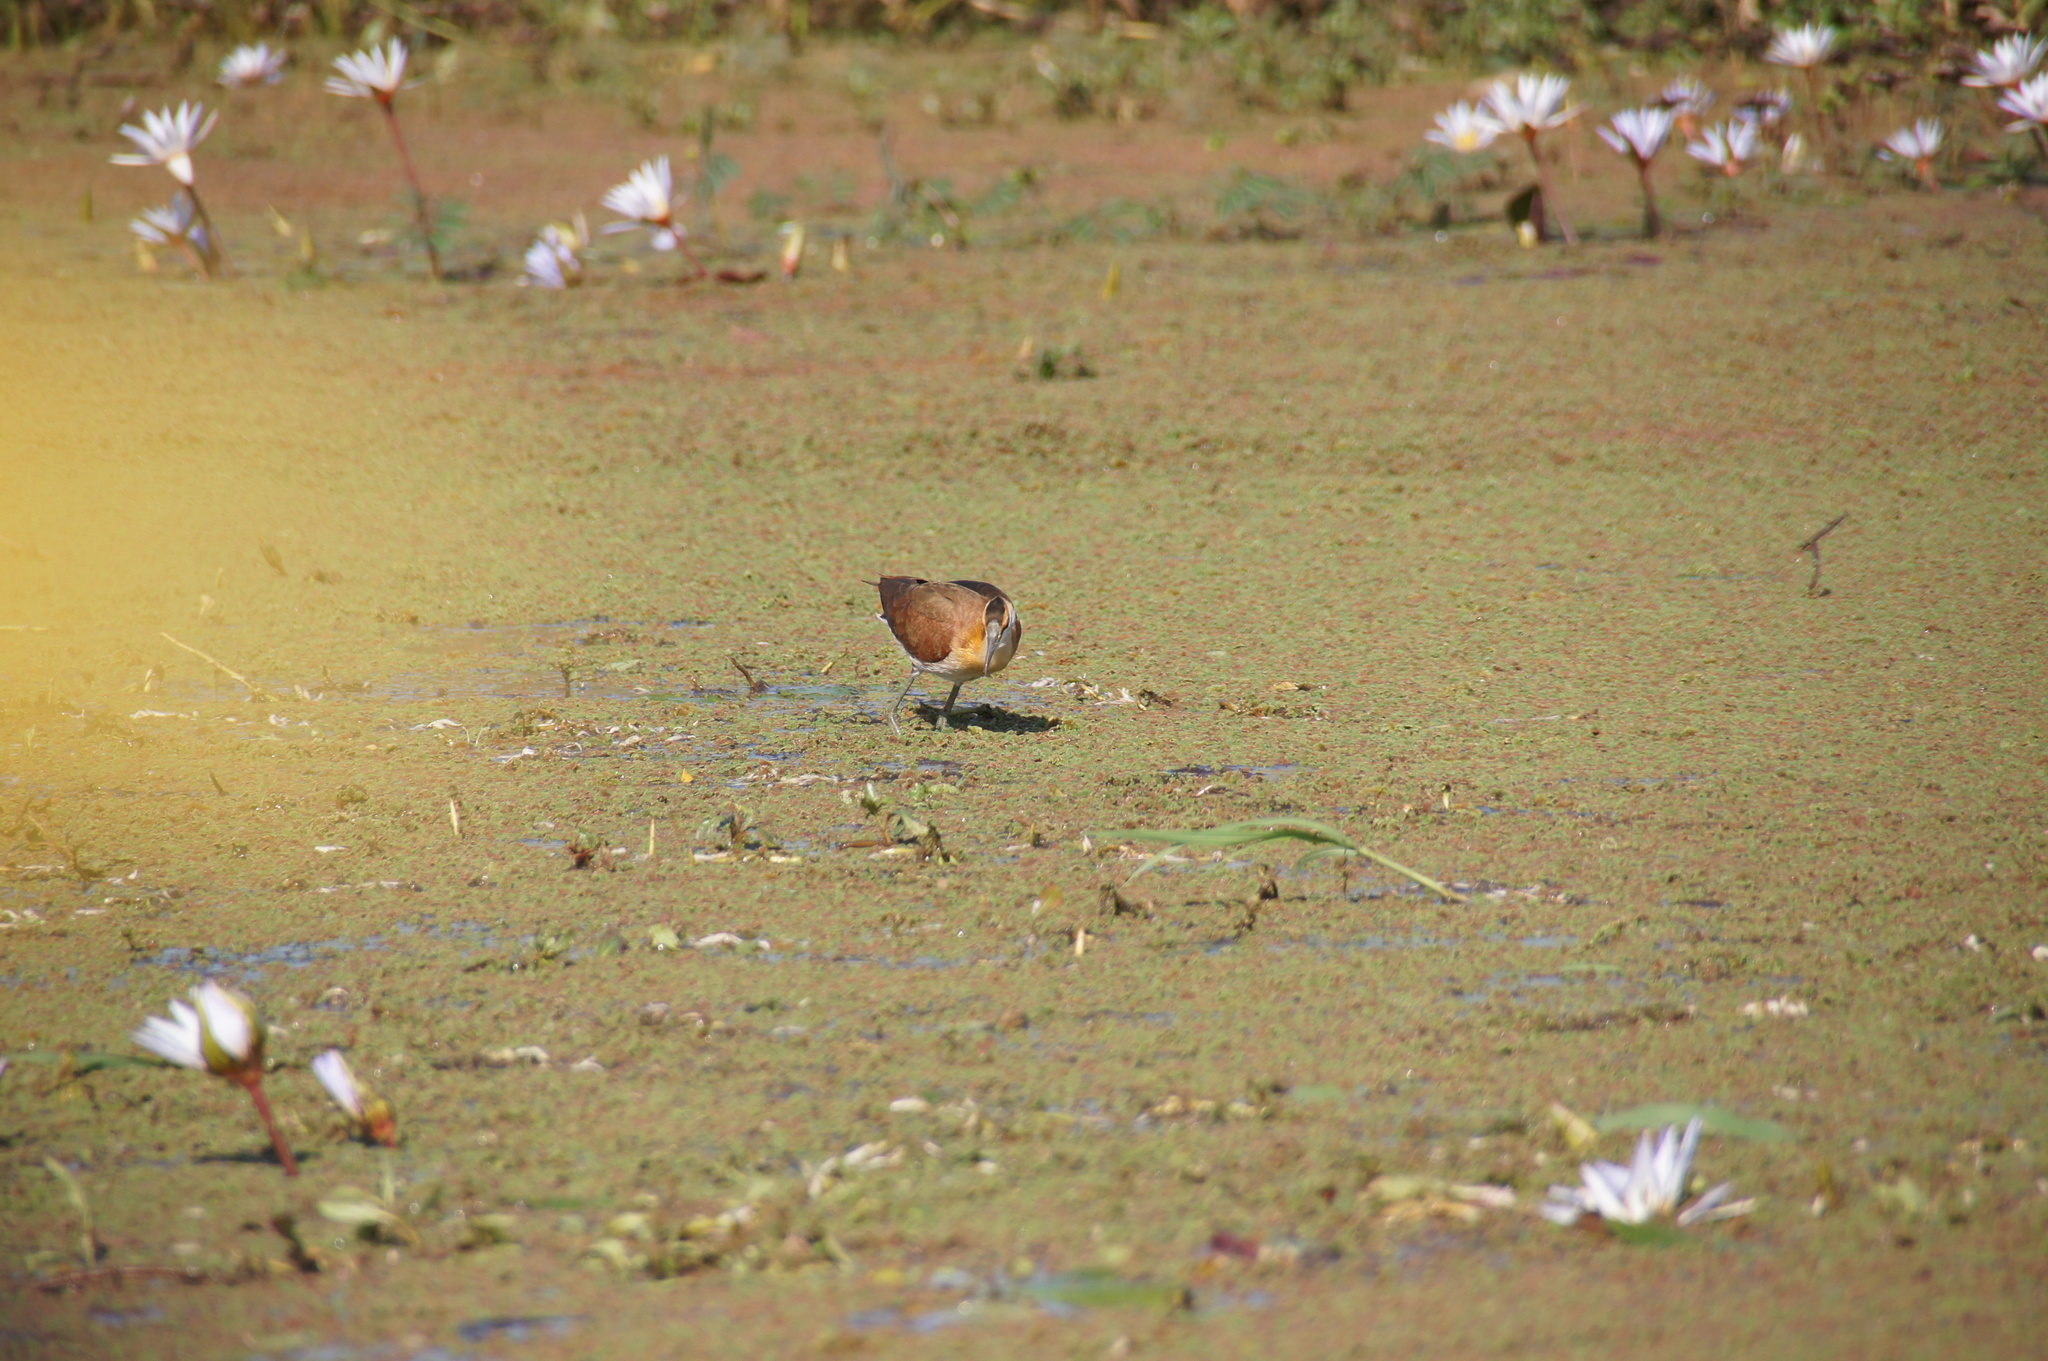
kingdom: Animalia
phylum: Chordata
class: Aves
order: Charadriiformes
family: Jacanidae
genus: Actophilornis
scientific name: Actophilornis africanus
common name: African jacana
